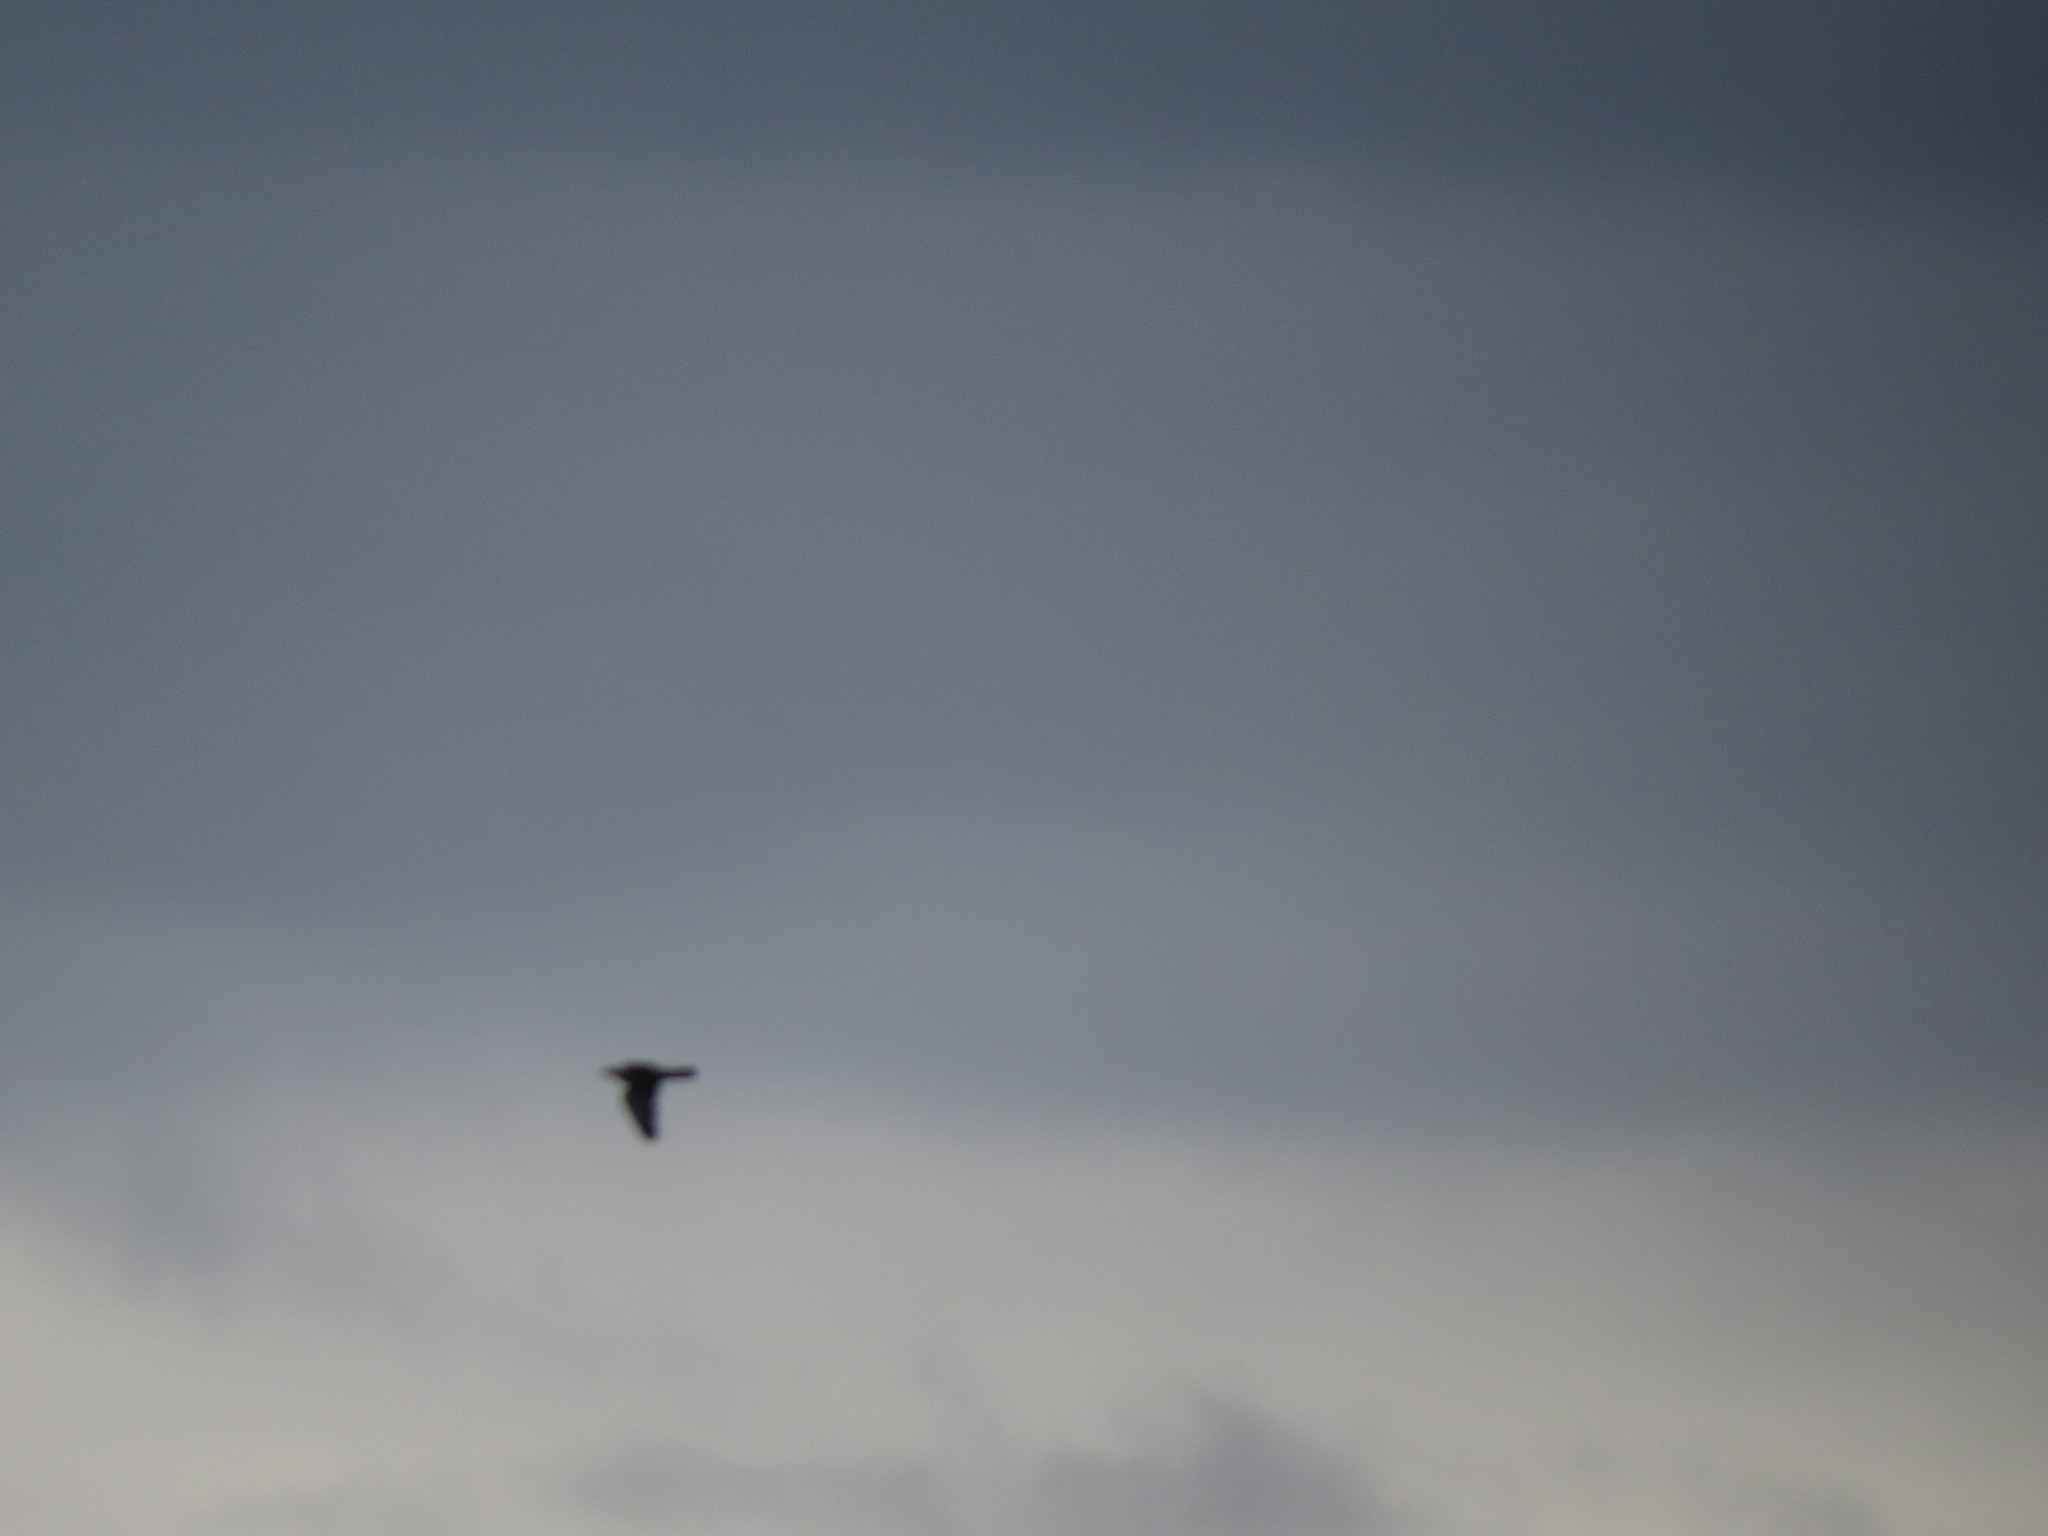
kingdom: Animalia
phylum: Chordata
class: Aves
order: Columbiformes
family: Columbidae
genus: Columba
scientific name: Columba palumbus
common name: Common wood pigeon
